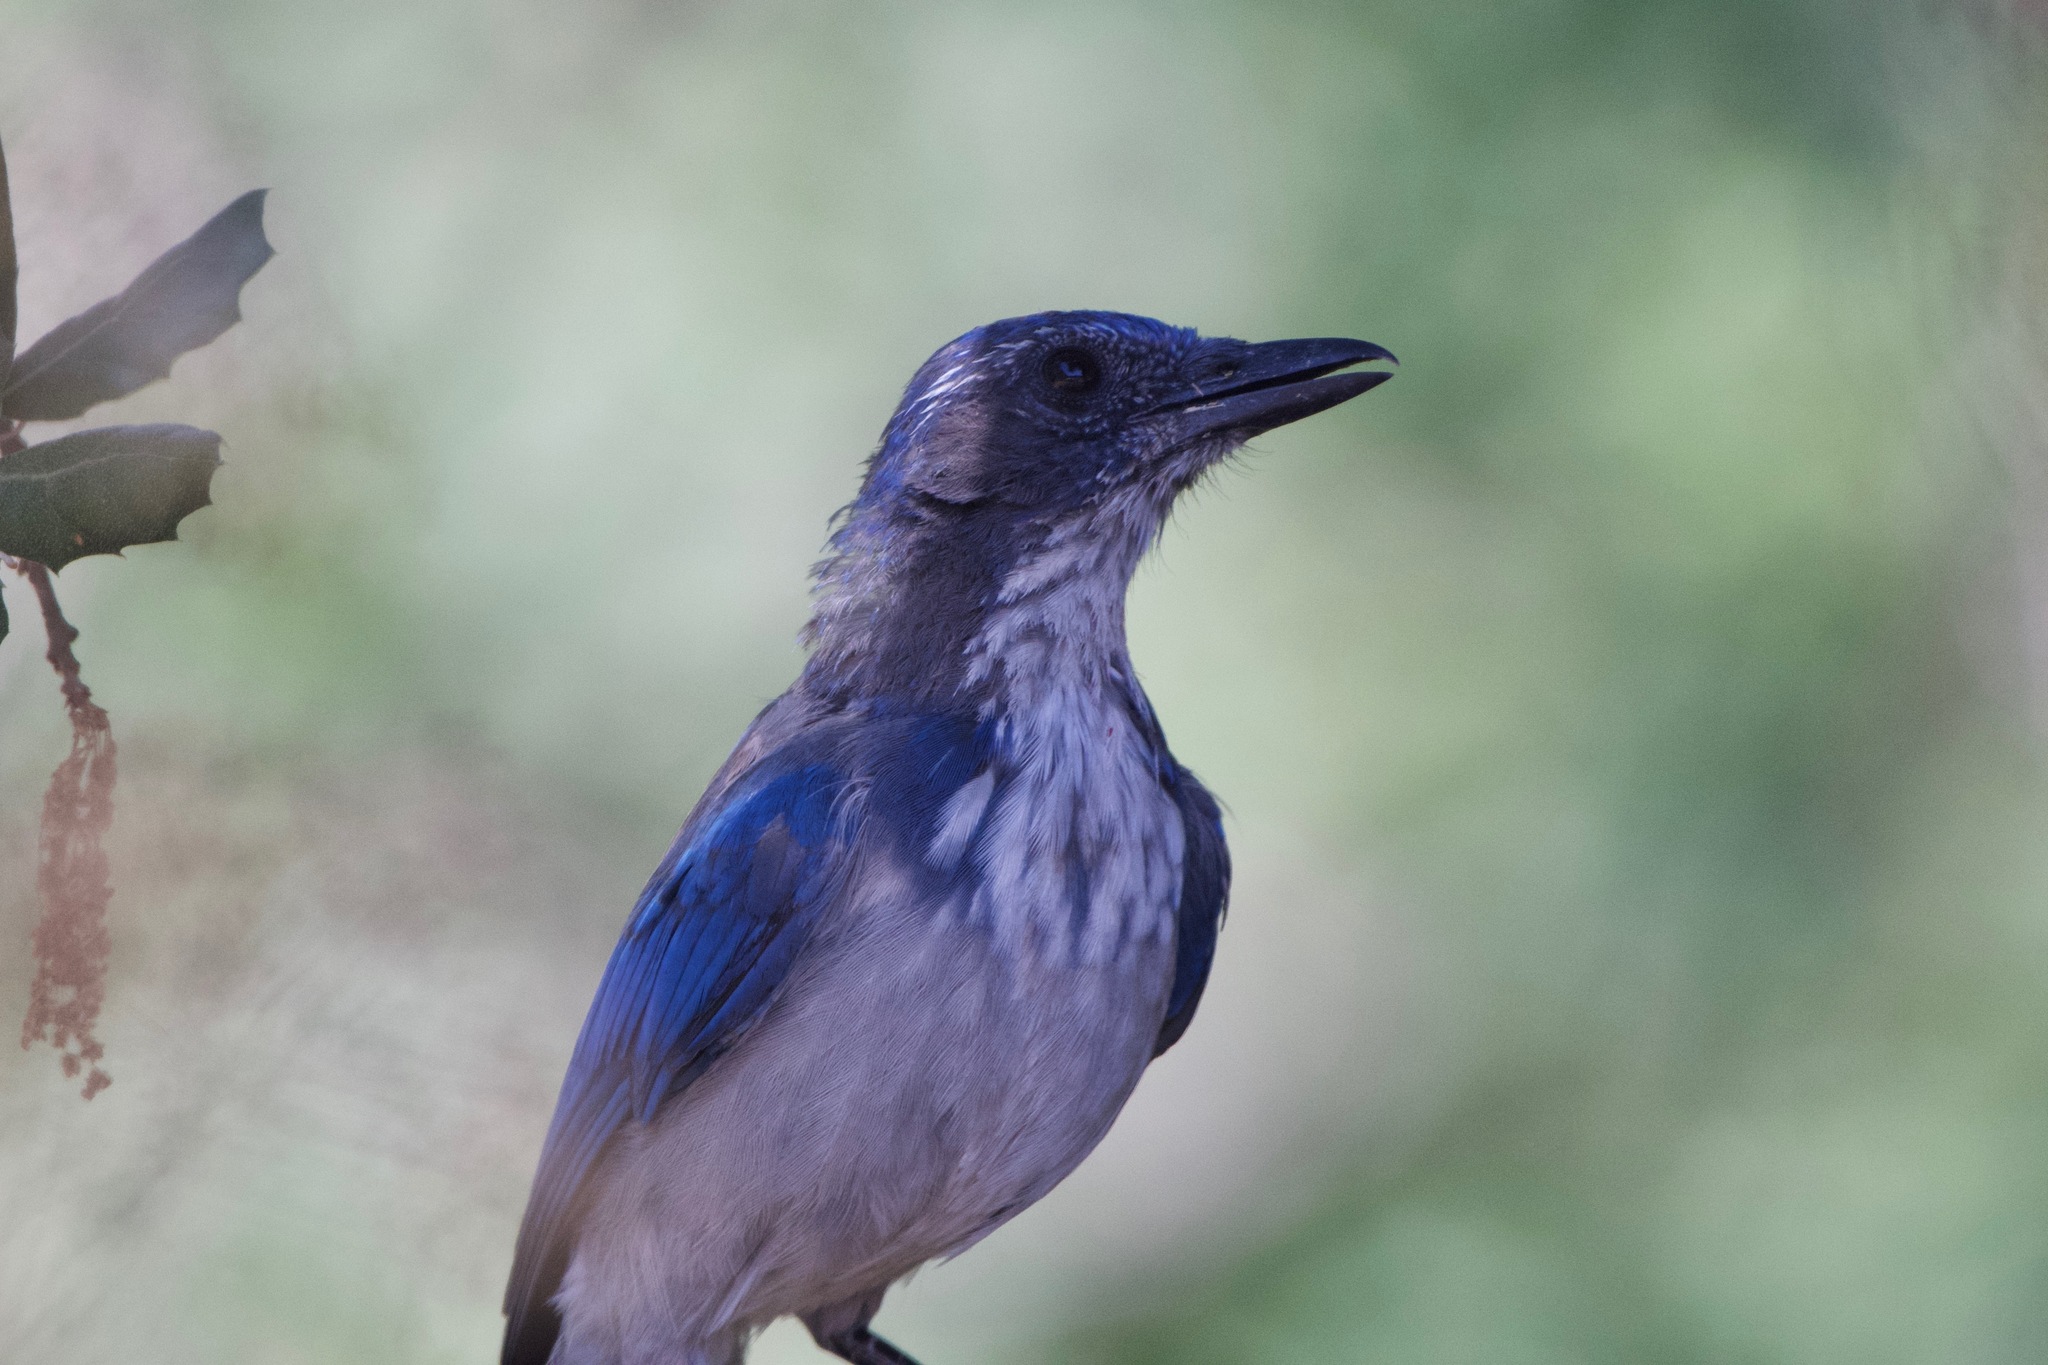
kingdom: Animalia
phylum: Chordata
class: Aves
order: Passeriformes
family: Corvidae
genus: Aphelocoma
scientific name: Aphelocoma californica
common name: California scrub-jay
